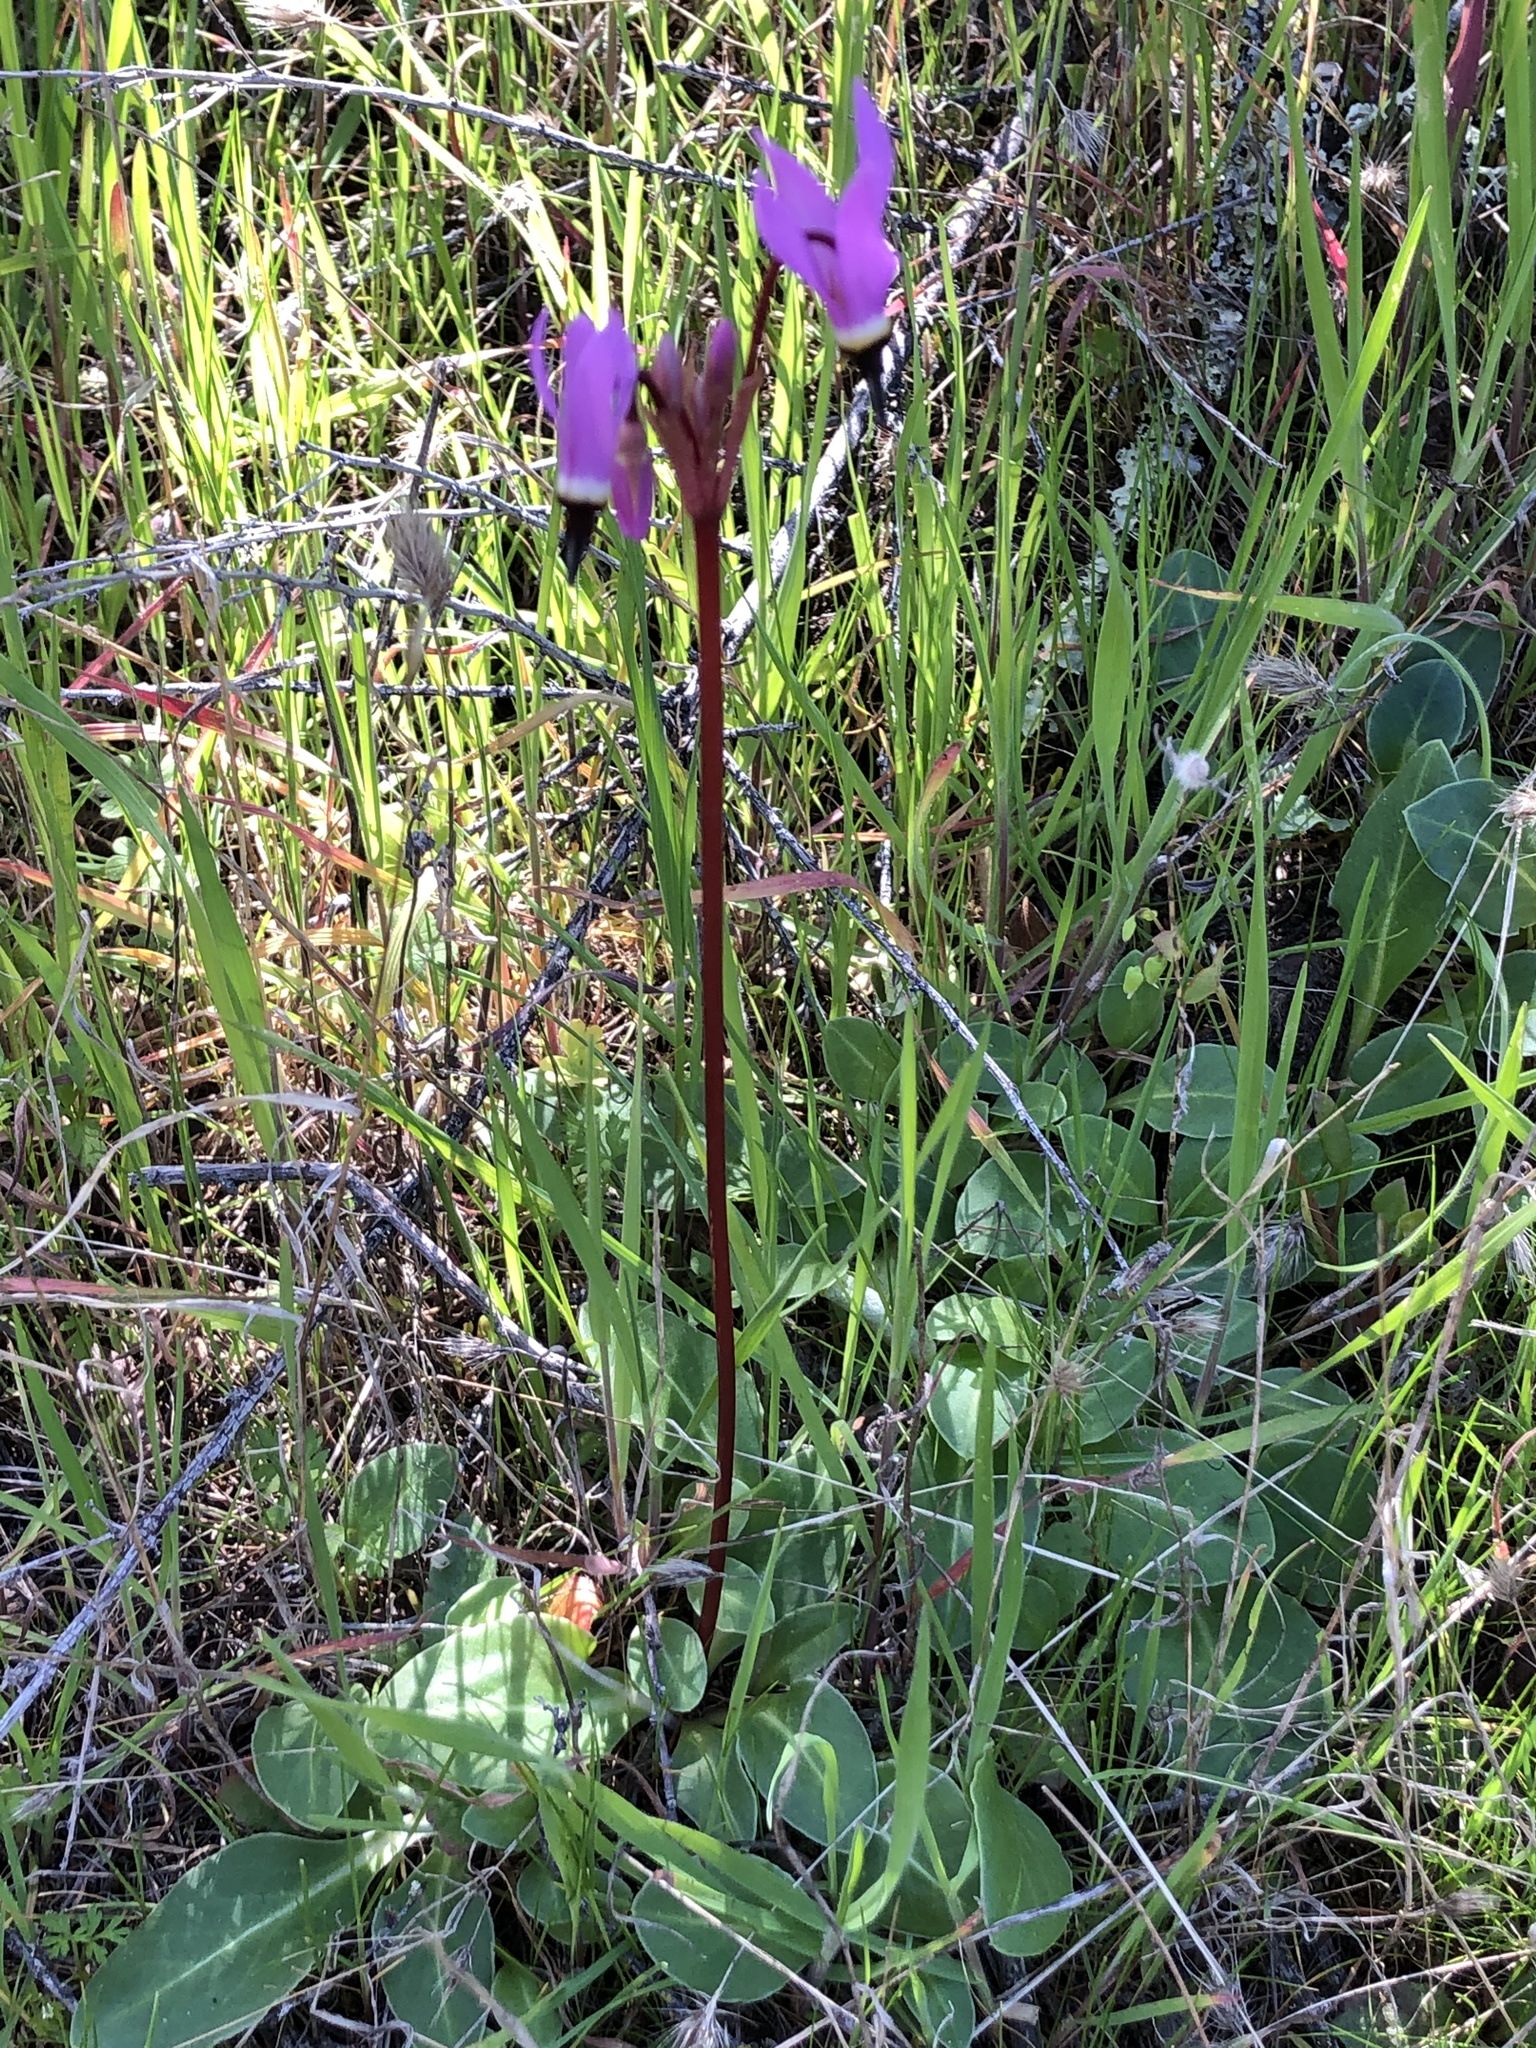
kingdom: Plantae
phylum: Tracheophyta
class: Magnoliopsida
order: Ericales
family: Primulaceae
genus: Dodecatheon
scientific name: Dodecatheon hendersonii
